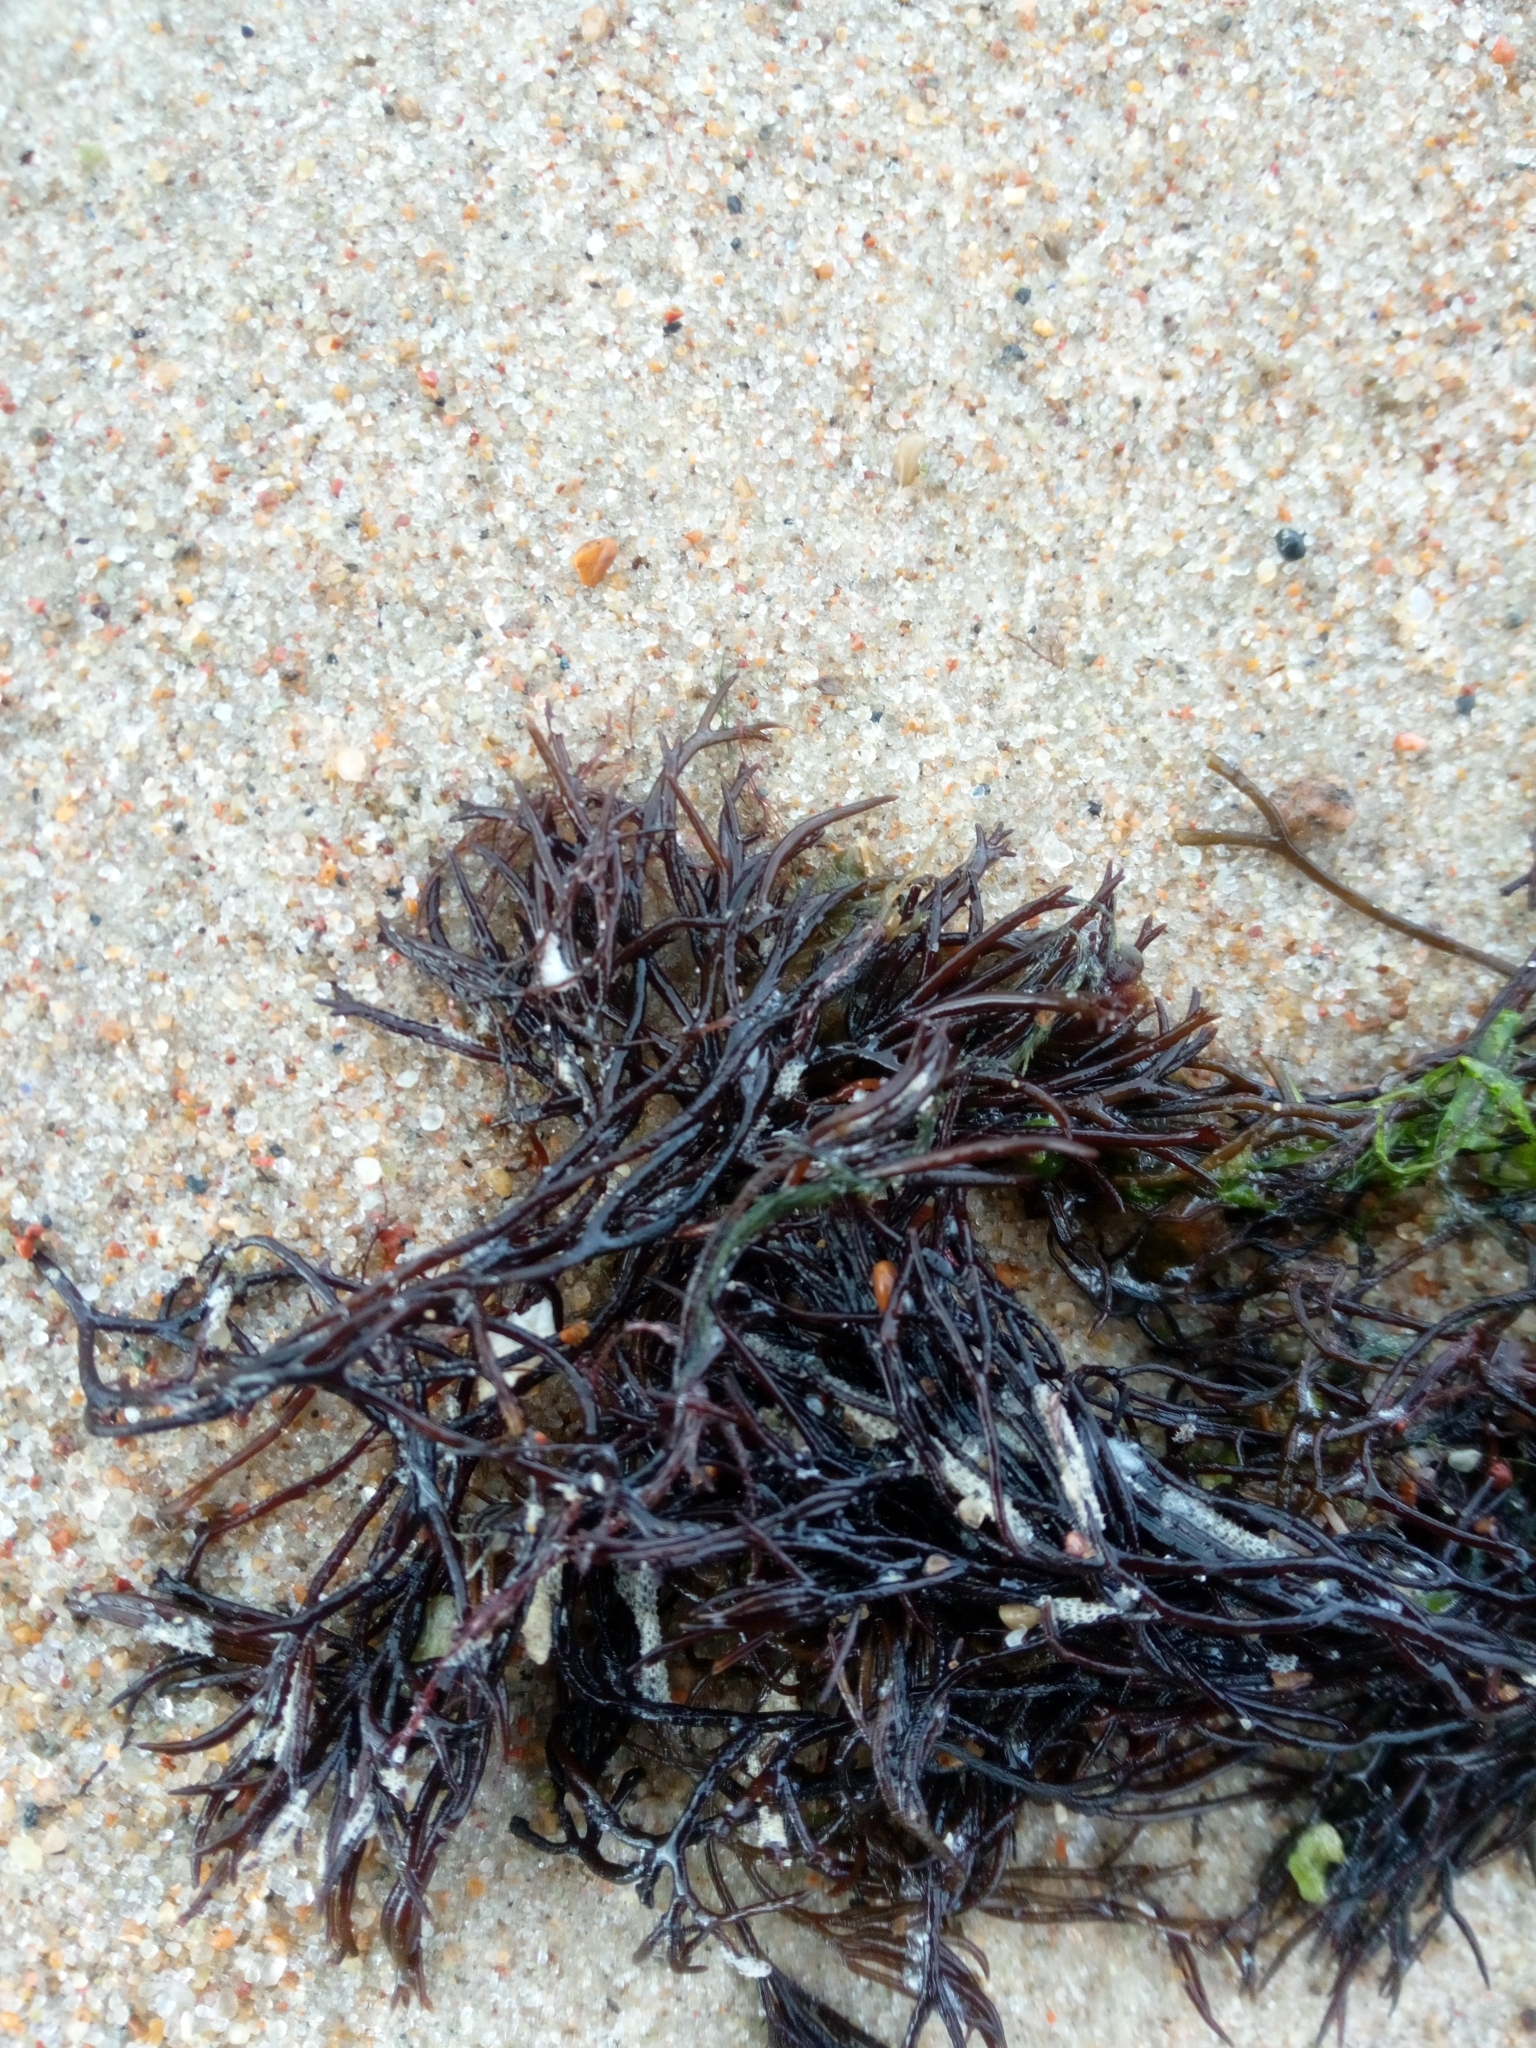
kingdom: Plantae
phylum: Rhodophyta
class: Florideophyceae
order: Gigartinales
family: Furcellariaceae
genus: Furcellaria
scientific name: Furcellaria lumbricalis
